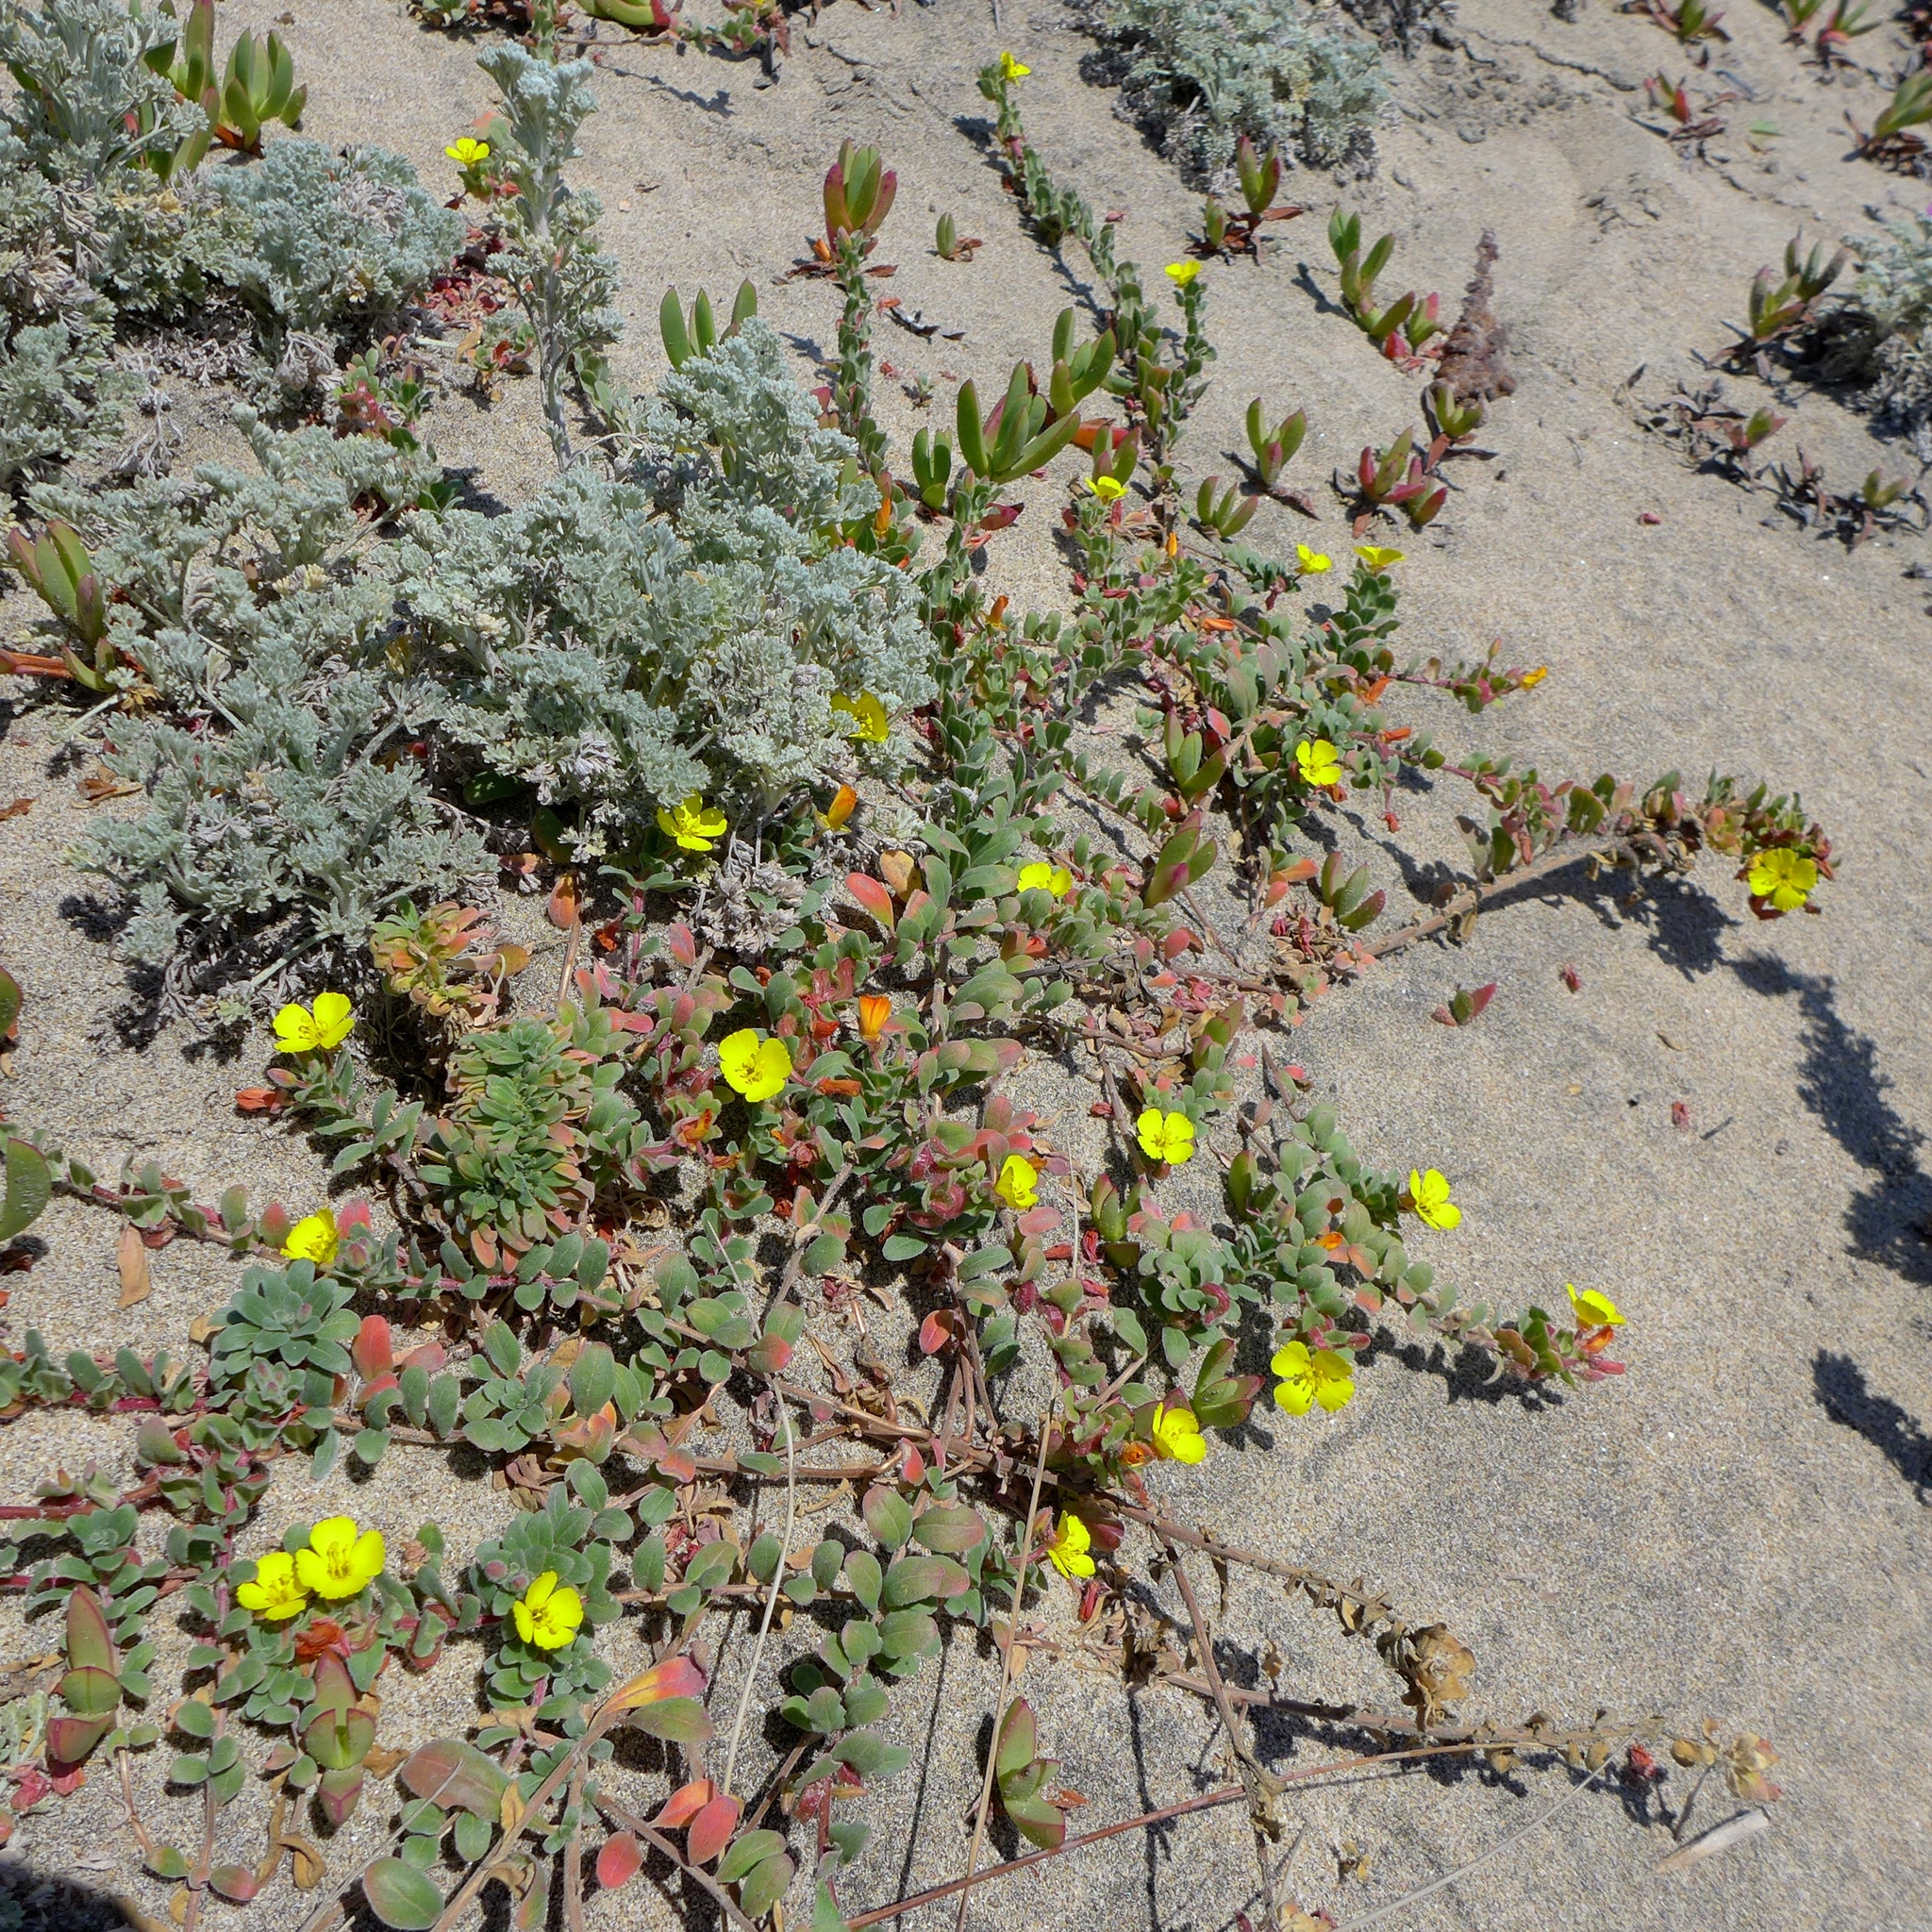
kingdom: Plantae
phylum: Tracheophyta
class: Magnoliopsida
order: Myrtales
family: Onagraceae
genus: Camissoniopsis
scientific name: Camissoniopsis cheiranthifolia
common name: Beach suncup
